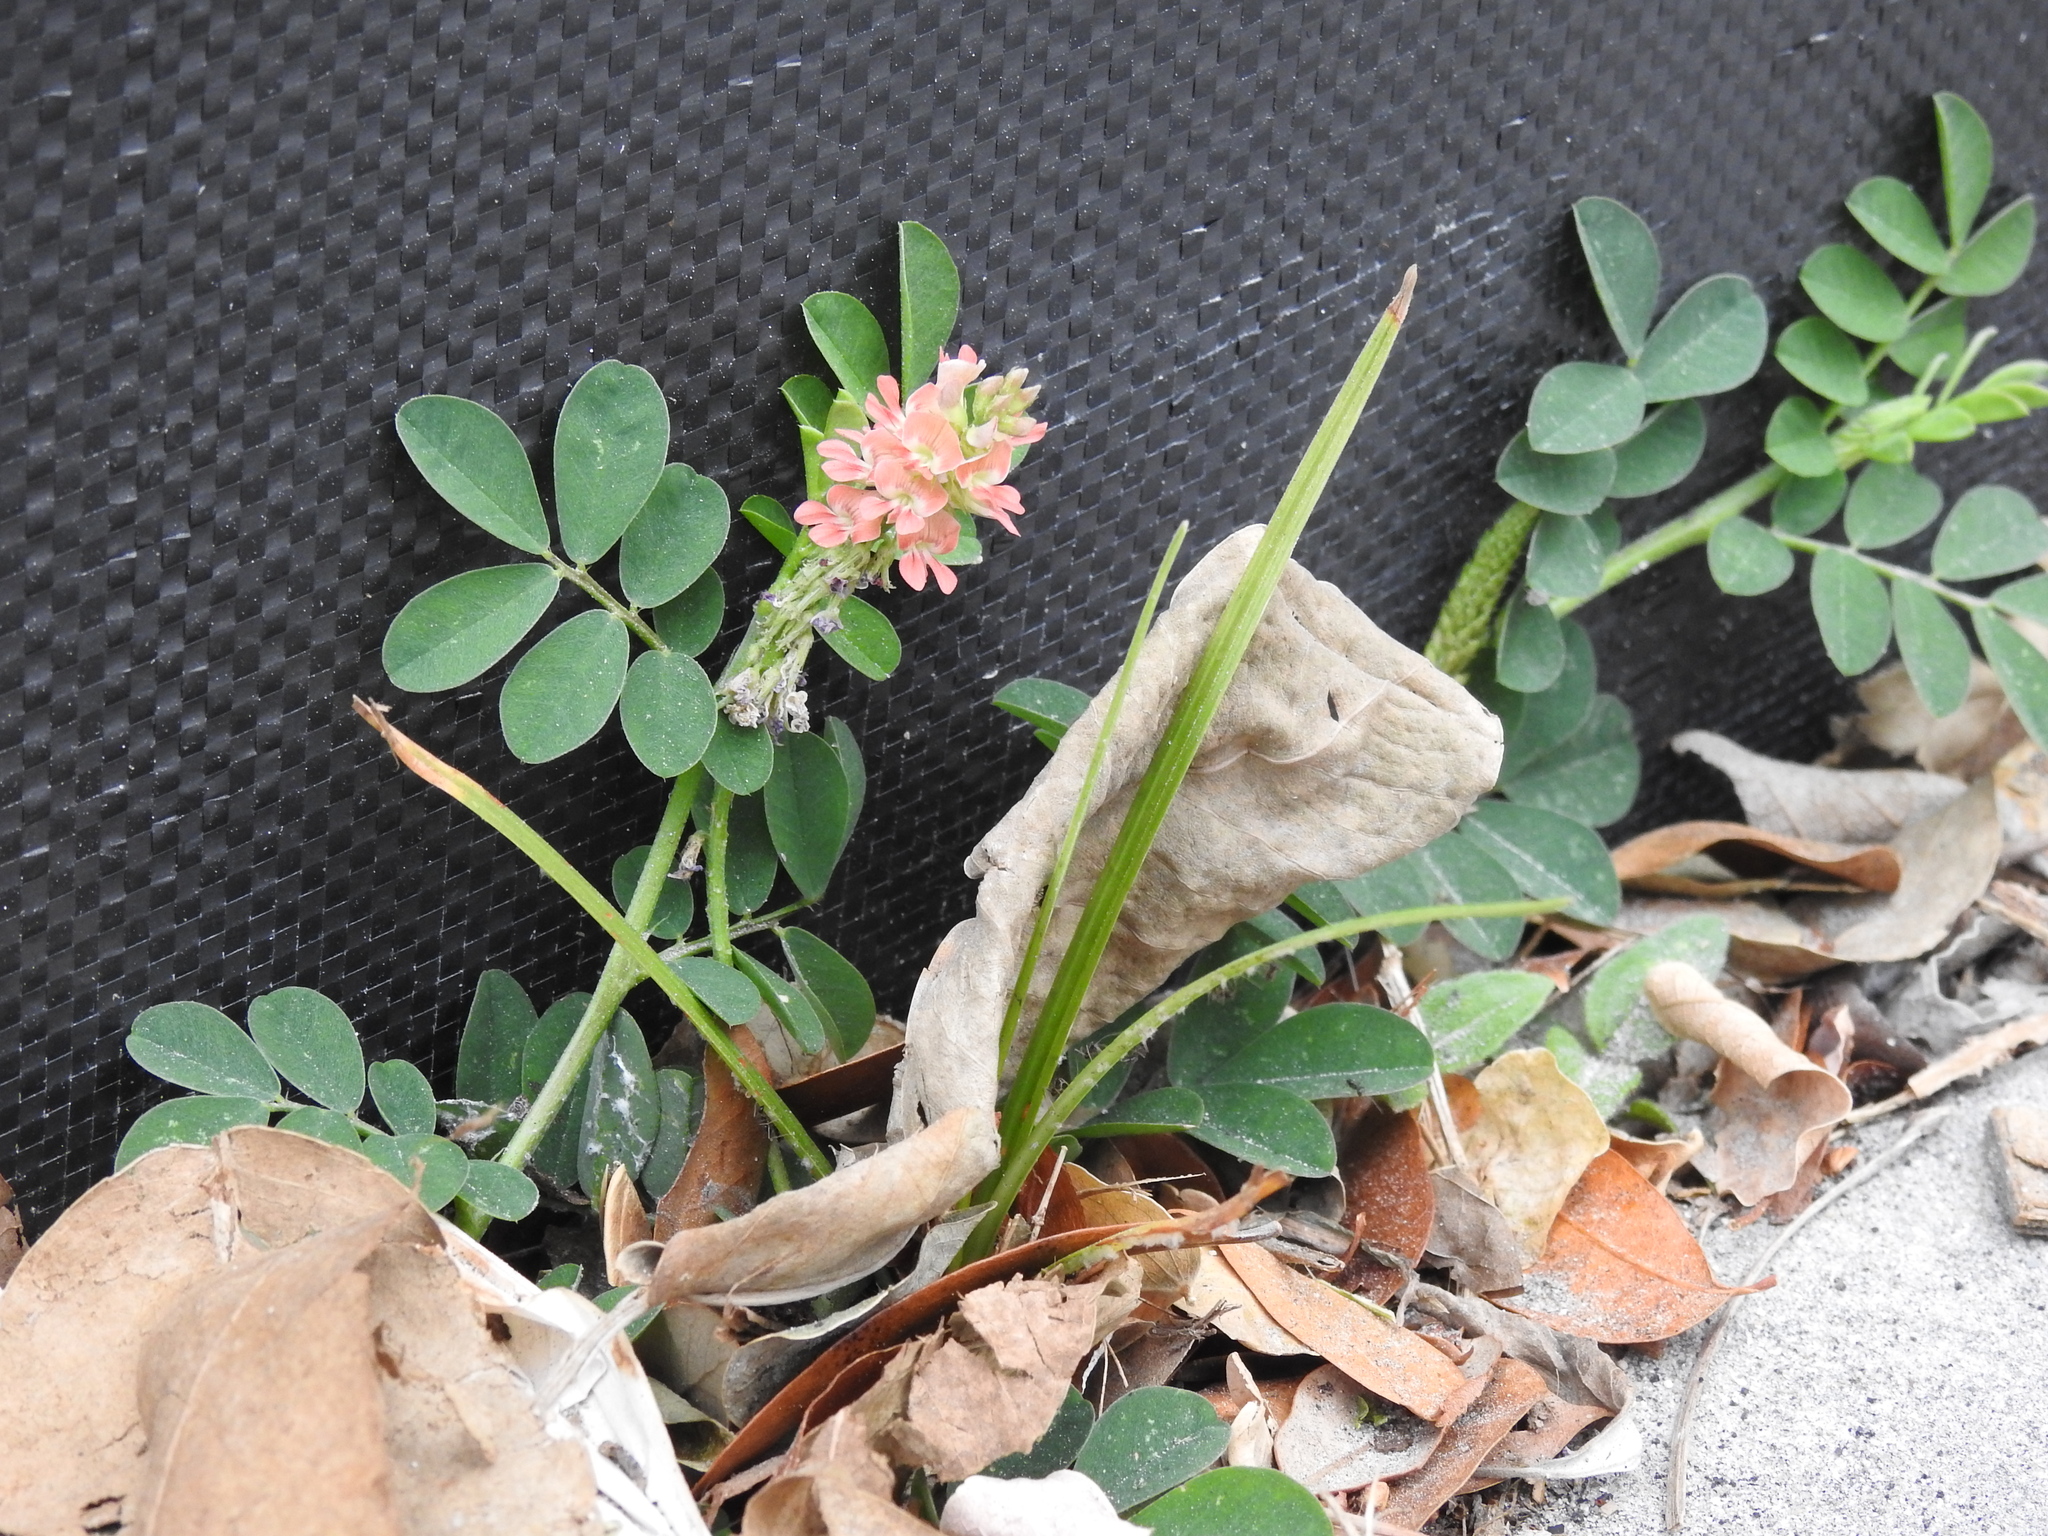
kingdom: Plantae
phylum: Tracheophyta
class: Magnoliopsida
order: Fabales
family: Fabaceae
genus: Indigofera
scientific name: Indigofera spicata
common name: Creeping indigo
